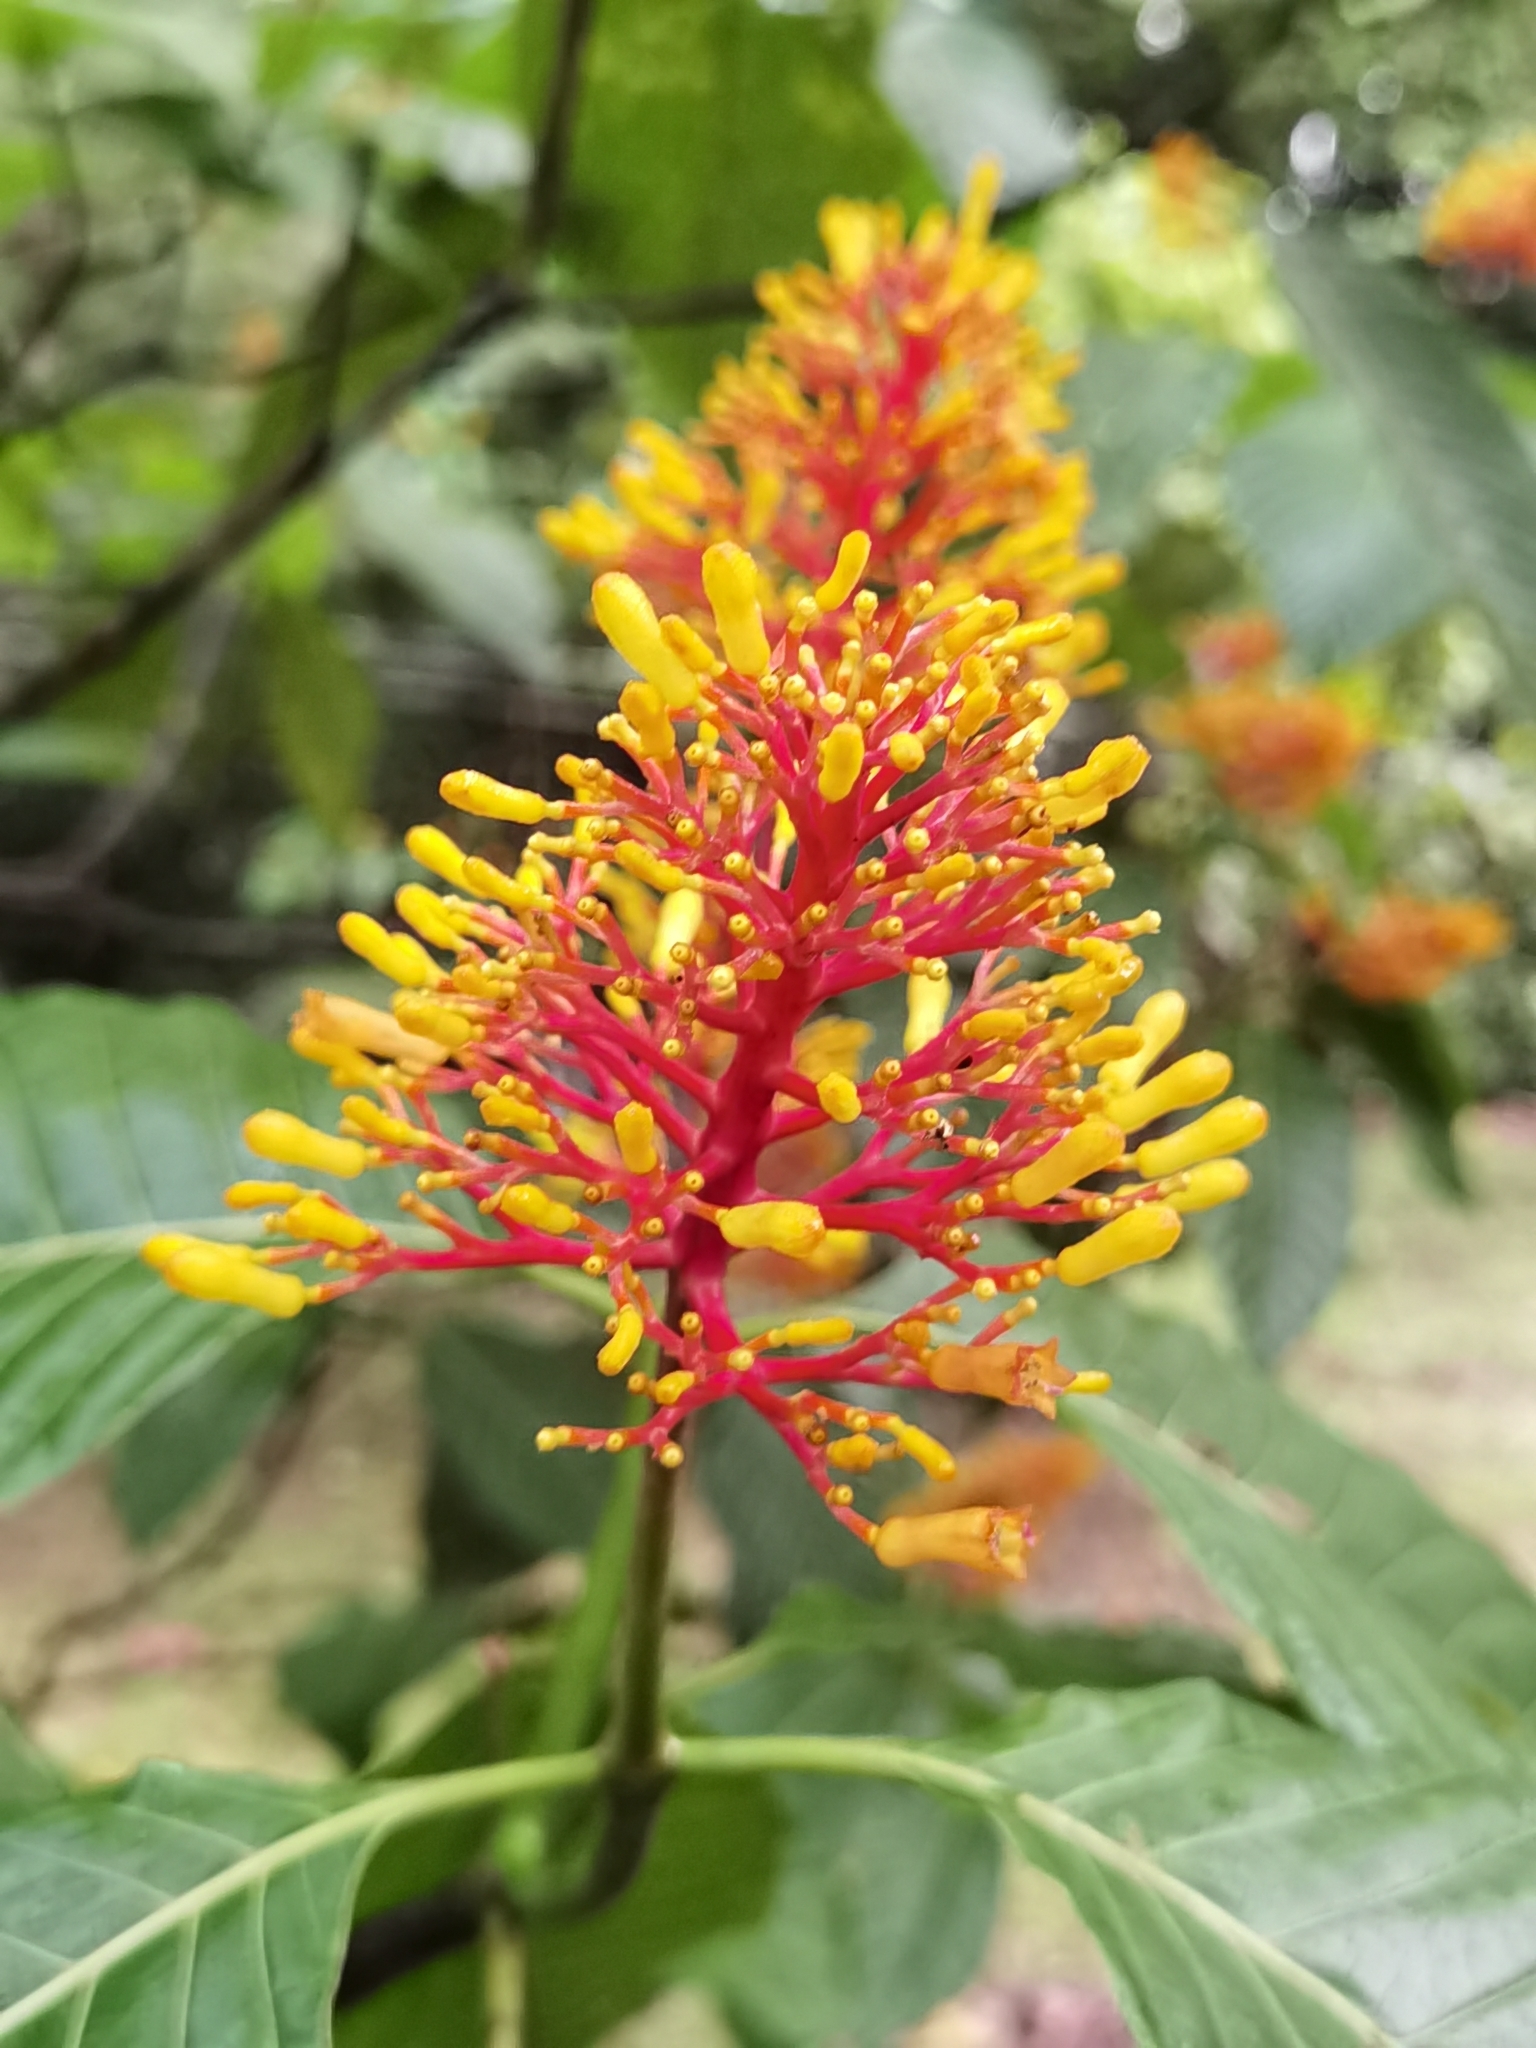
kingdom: Plantae
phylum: Tracheophyta
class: Magnoliopsida
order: Gentianales
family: Rubiaceae
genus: Palicourea
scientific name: Palicourea guianensis
